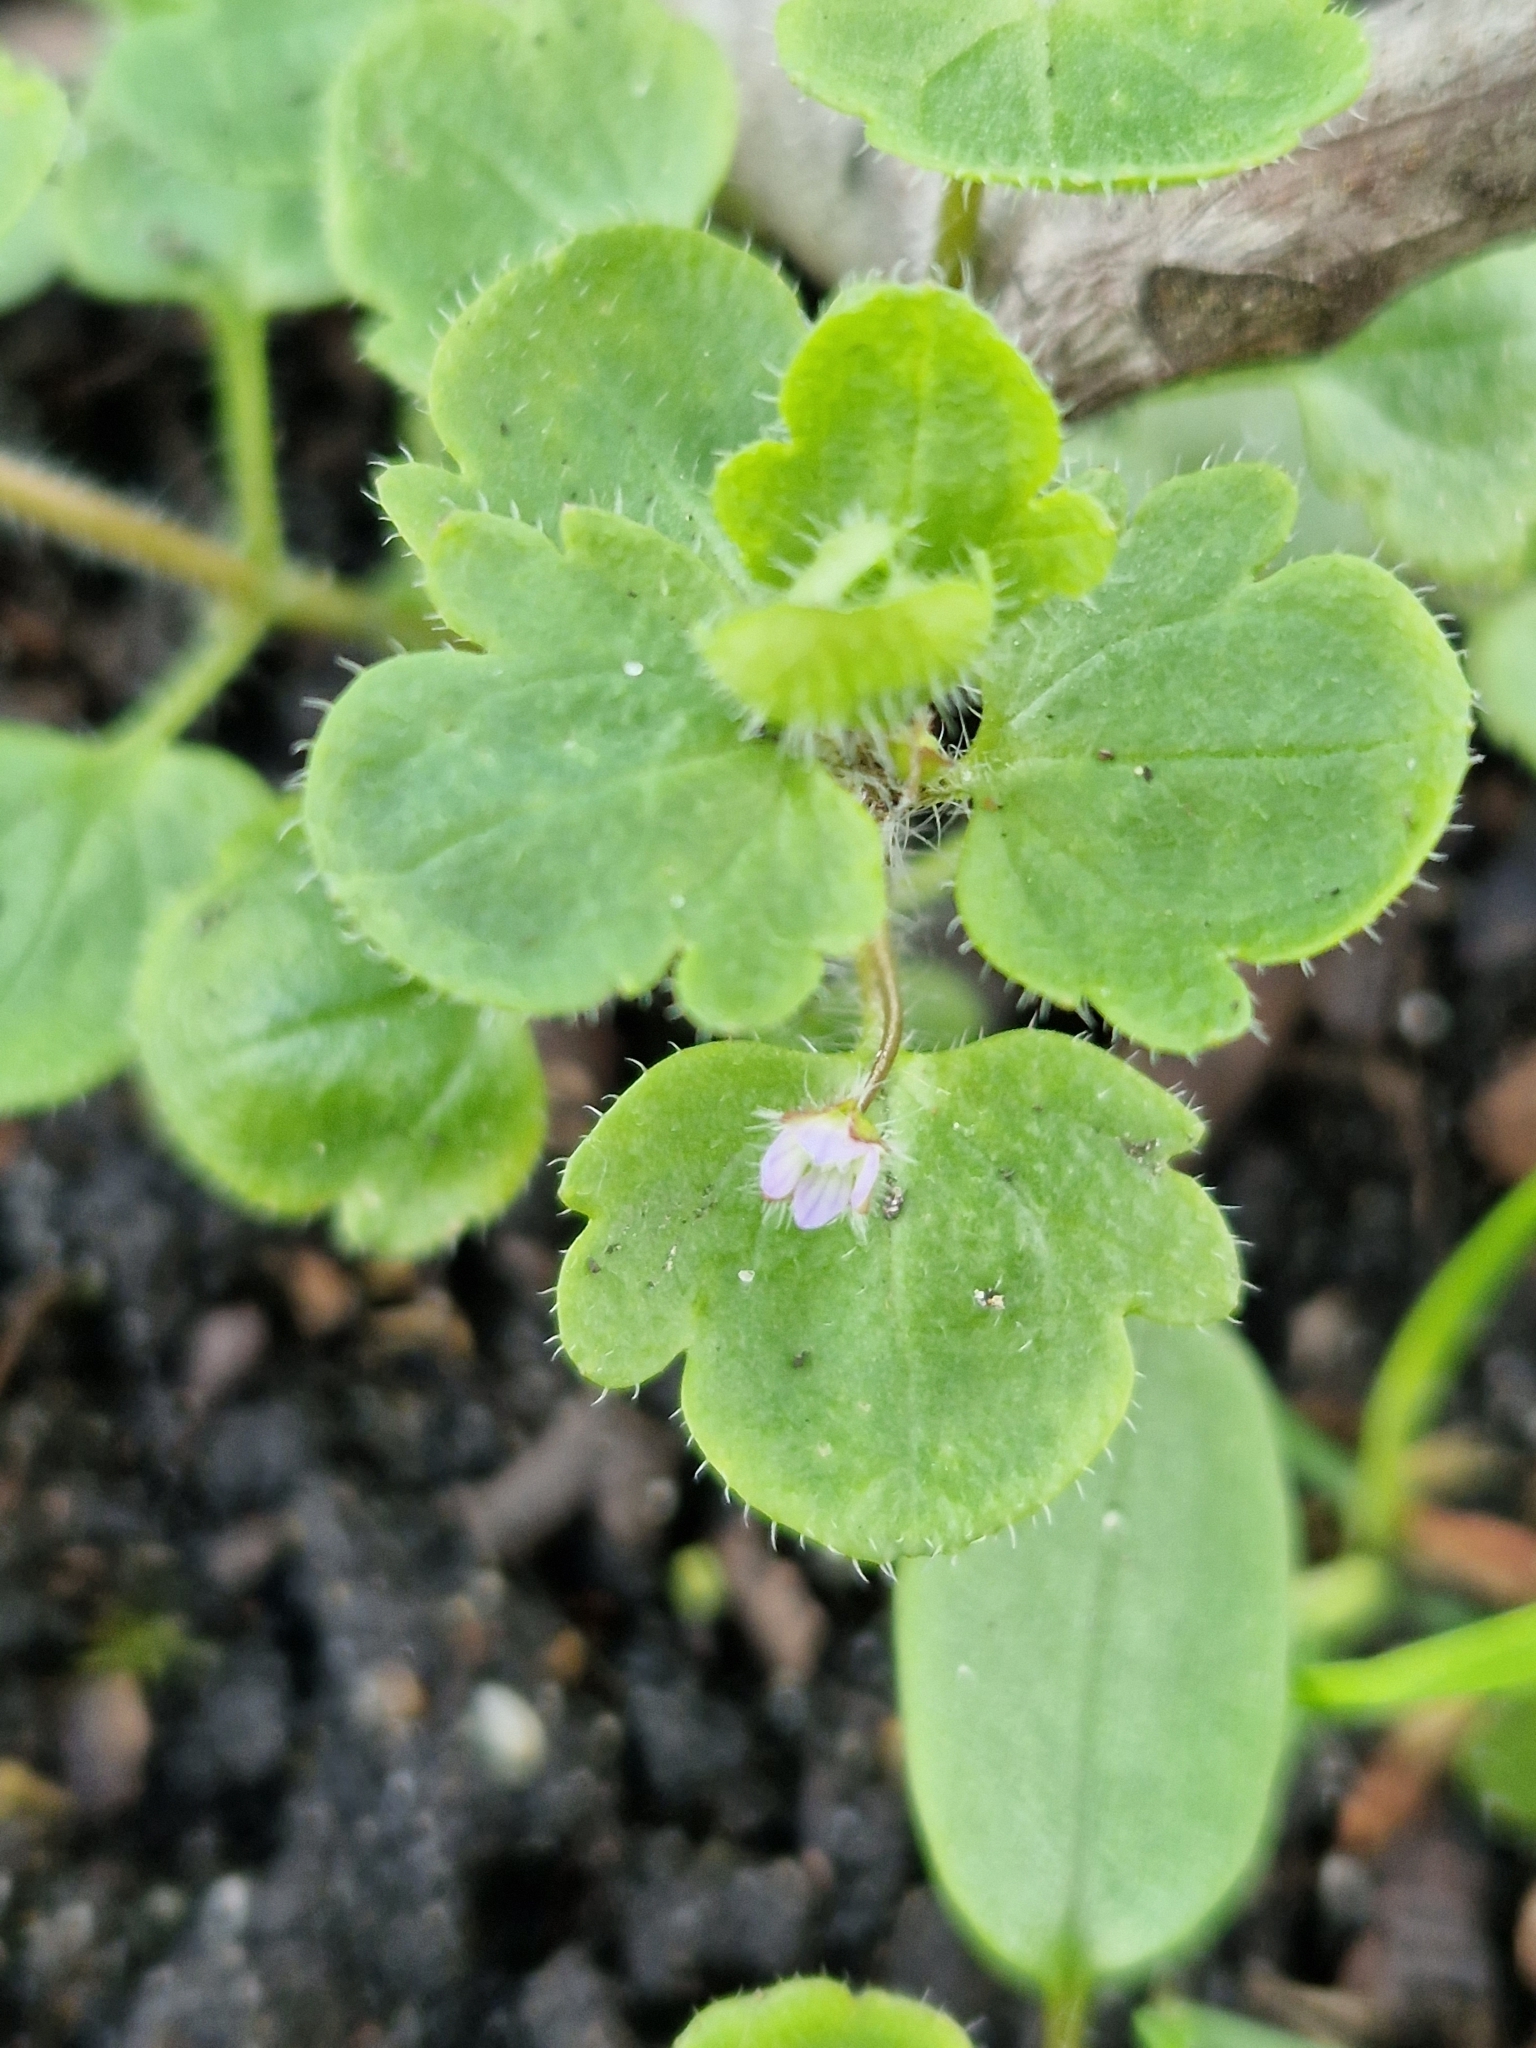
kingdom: Plantae
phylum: Tracheophyta
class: Magnoliopsida
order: Lamiales
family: Plantaginaceae
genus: Veronica
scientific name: Veronica sublobata
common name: False ivy-leaved speedwell
